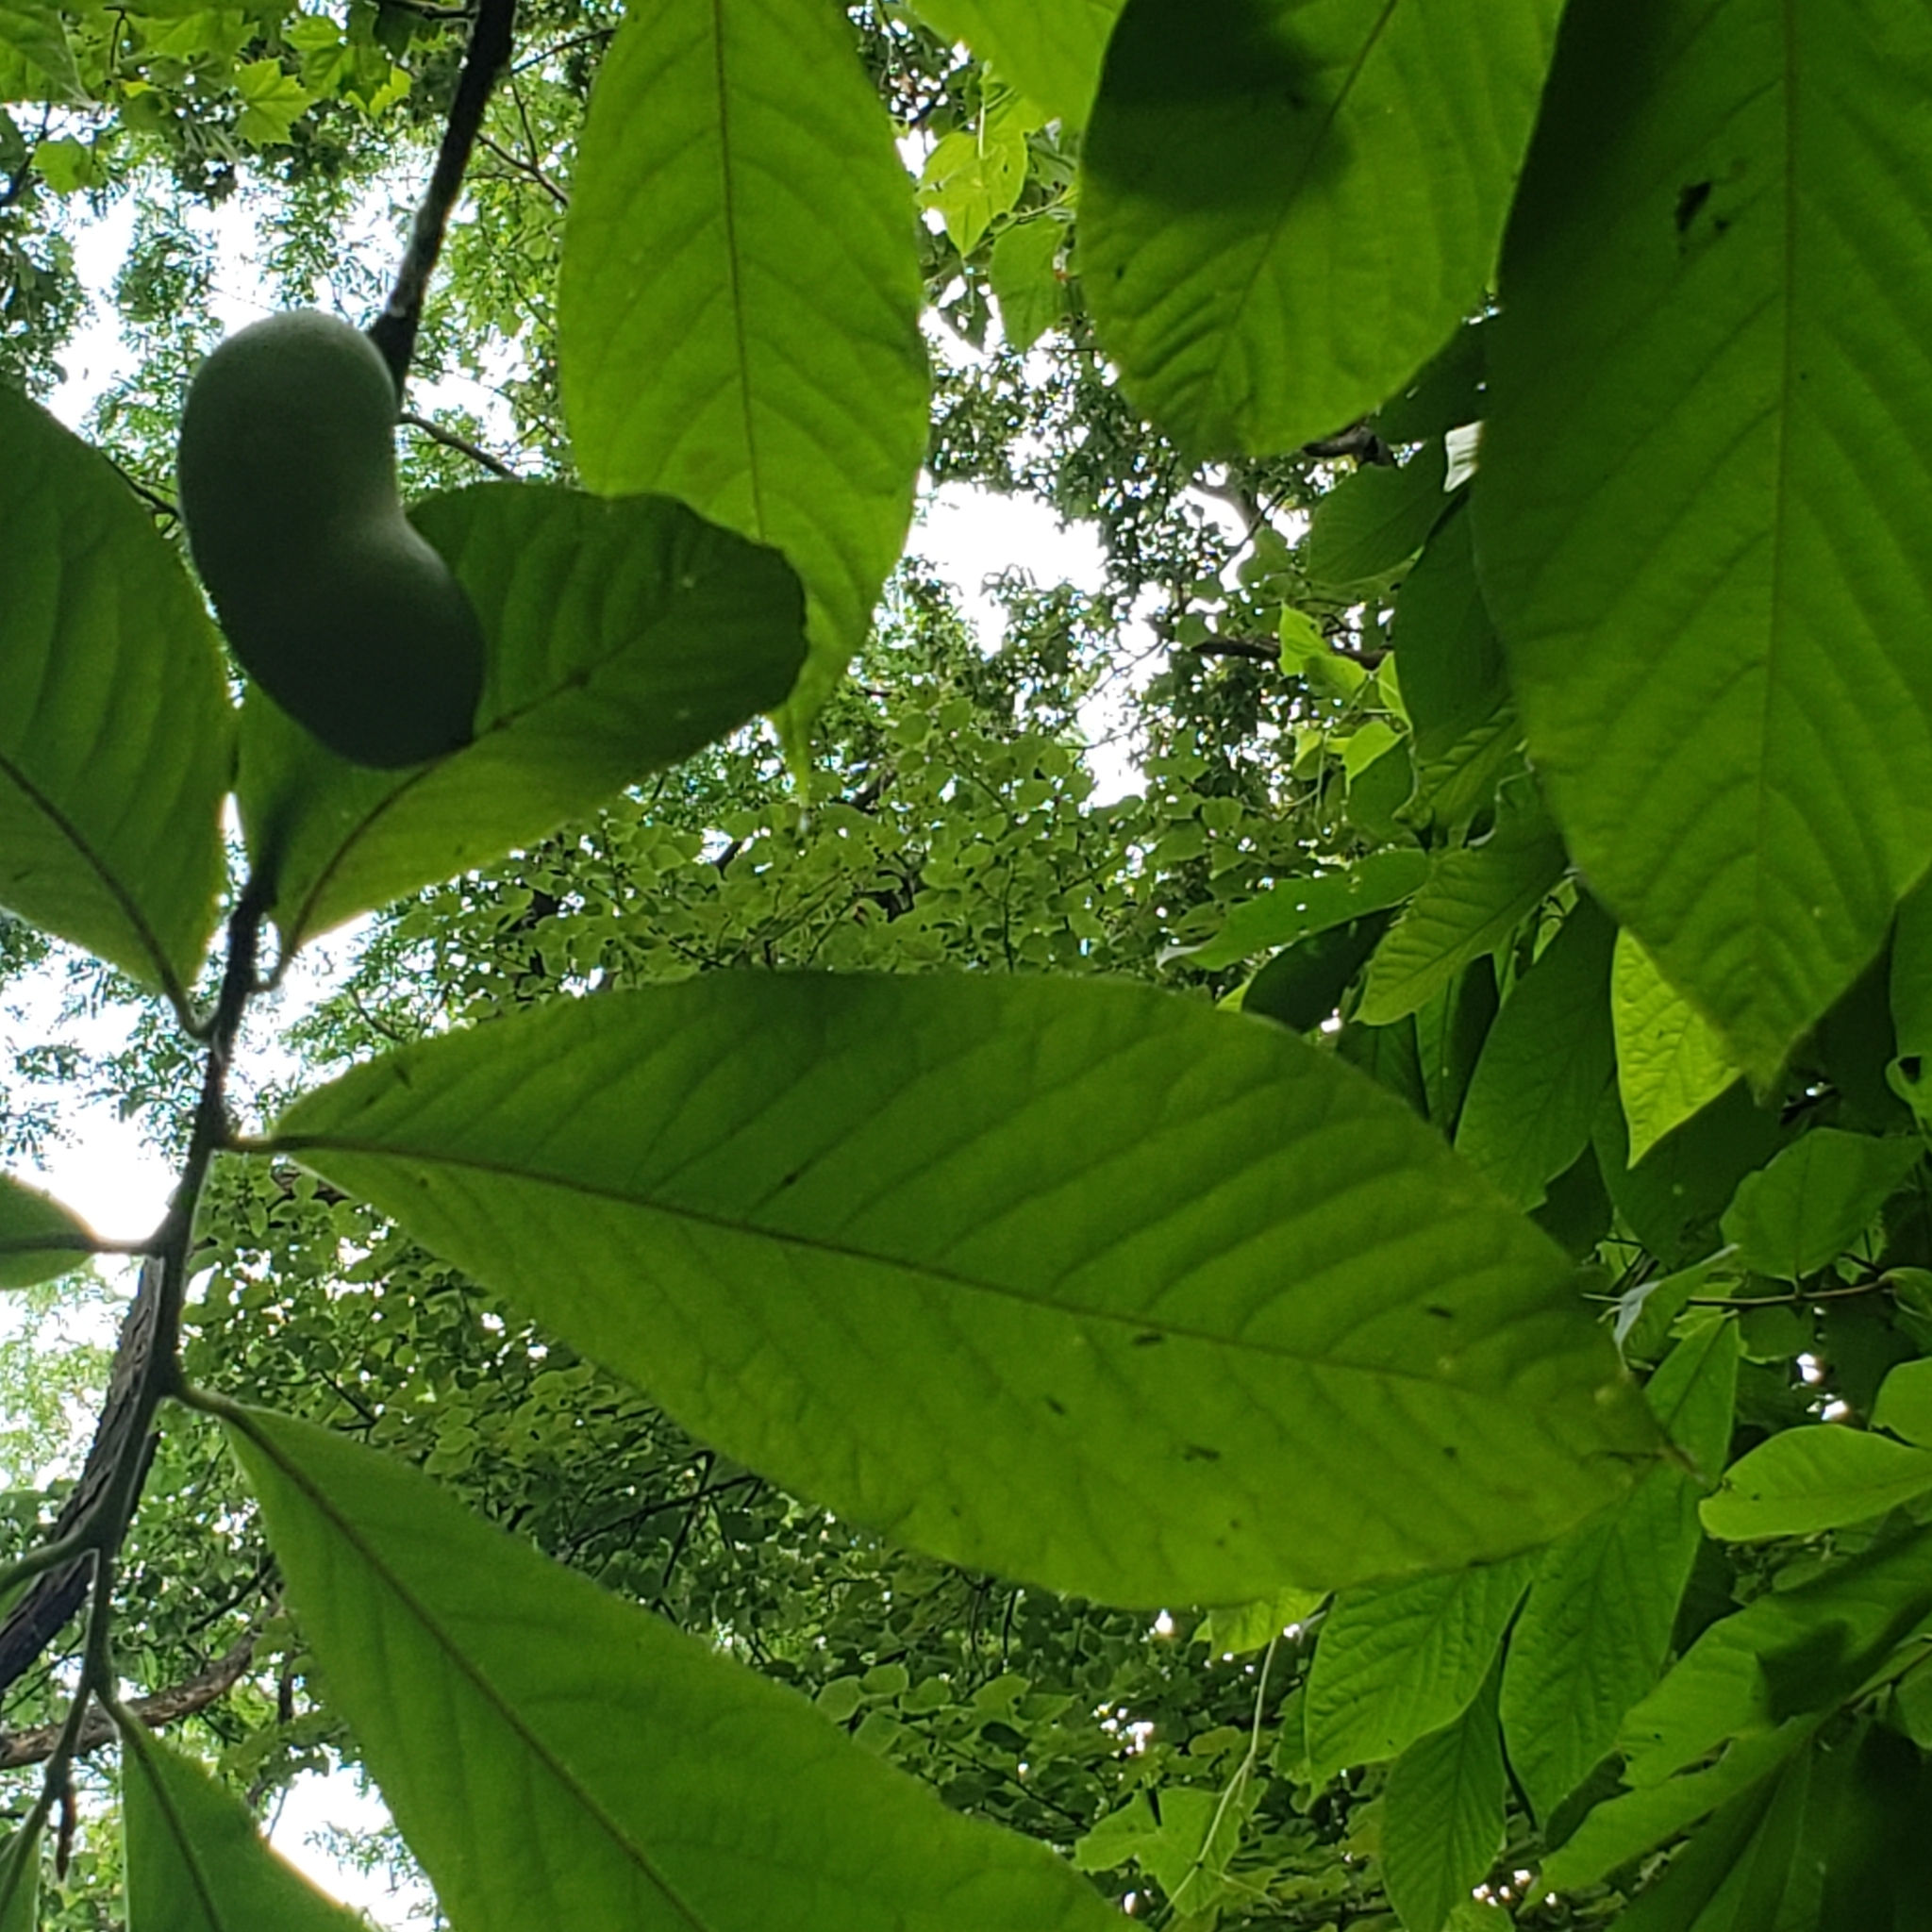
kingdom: Plantae
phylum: Tracheophyta
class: Magnoliopsida
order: Magnoliales
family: Annonaceae
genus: Asimina
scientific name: Asimina triloba
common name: Dog-banana
